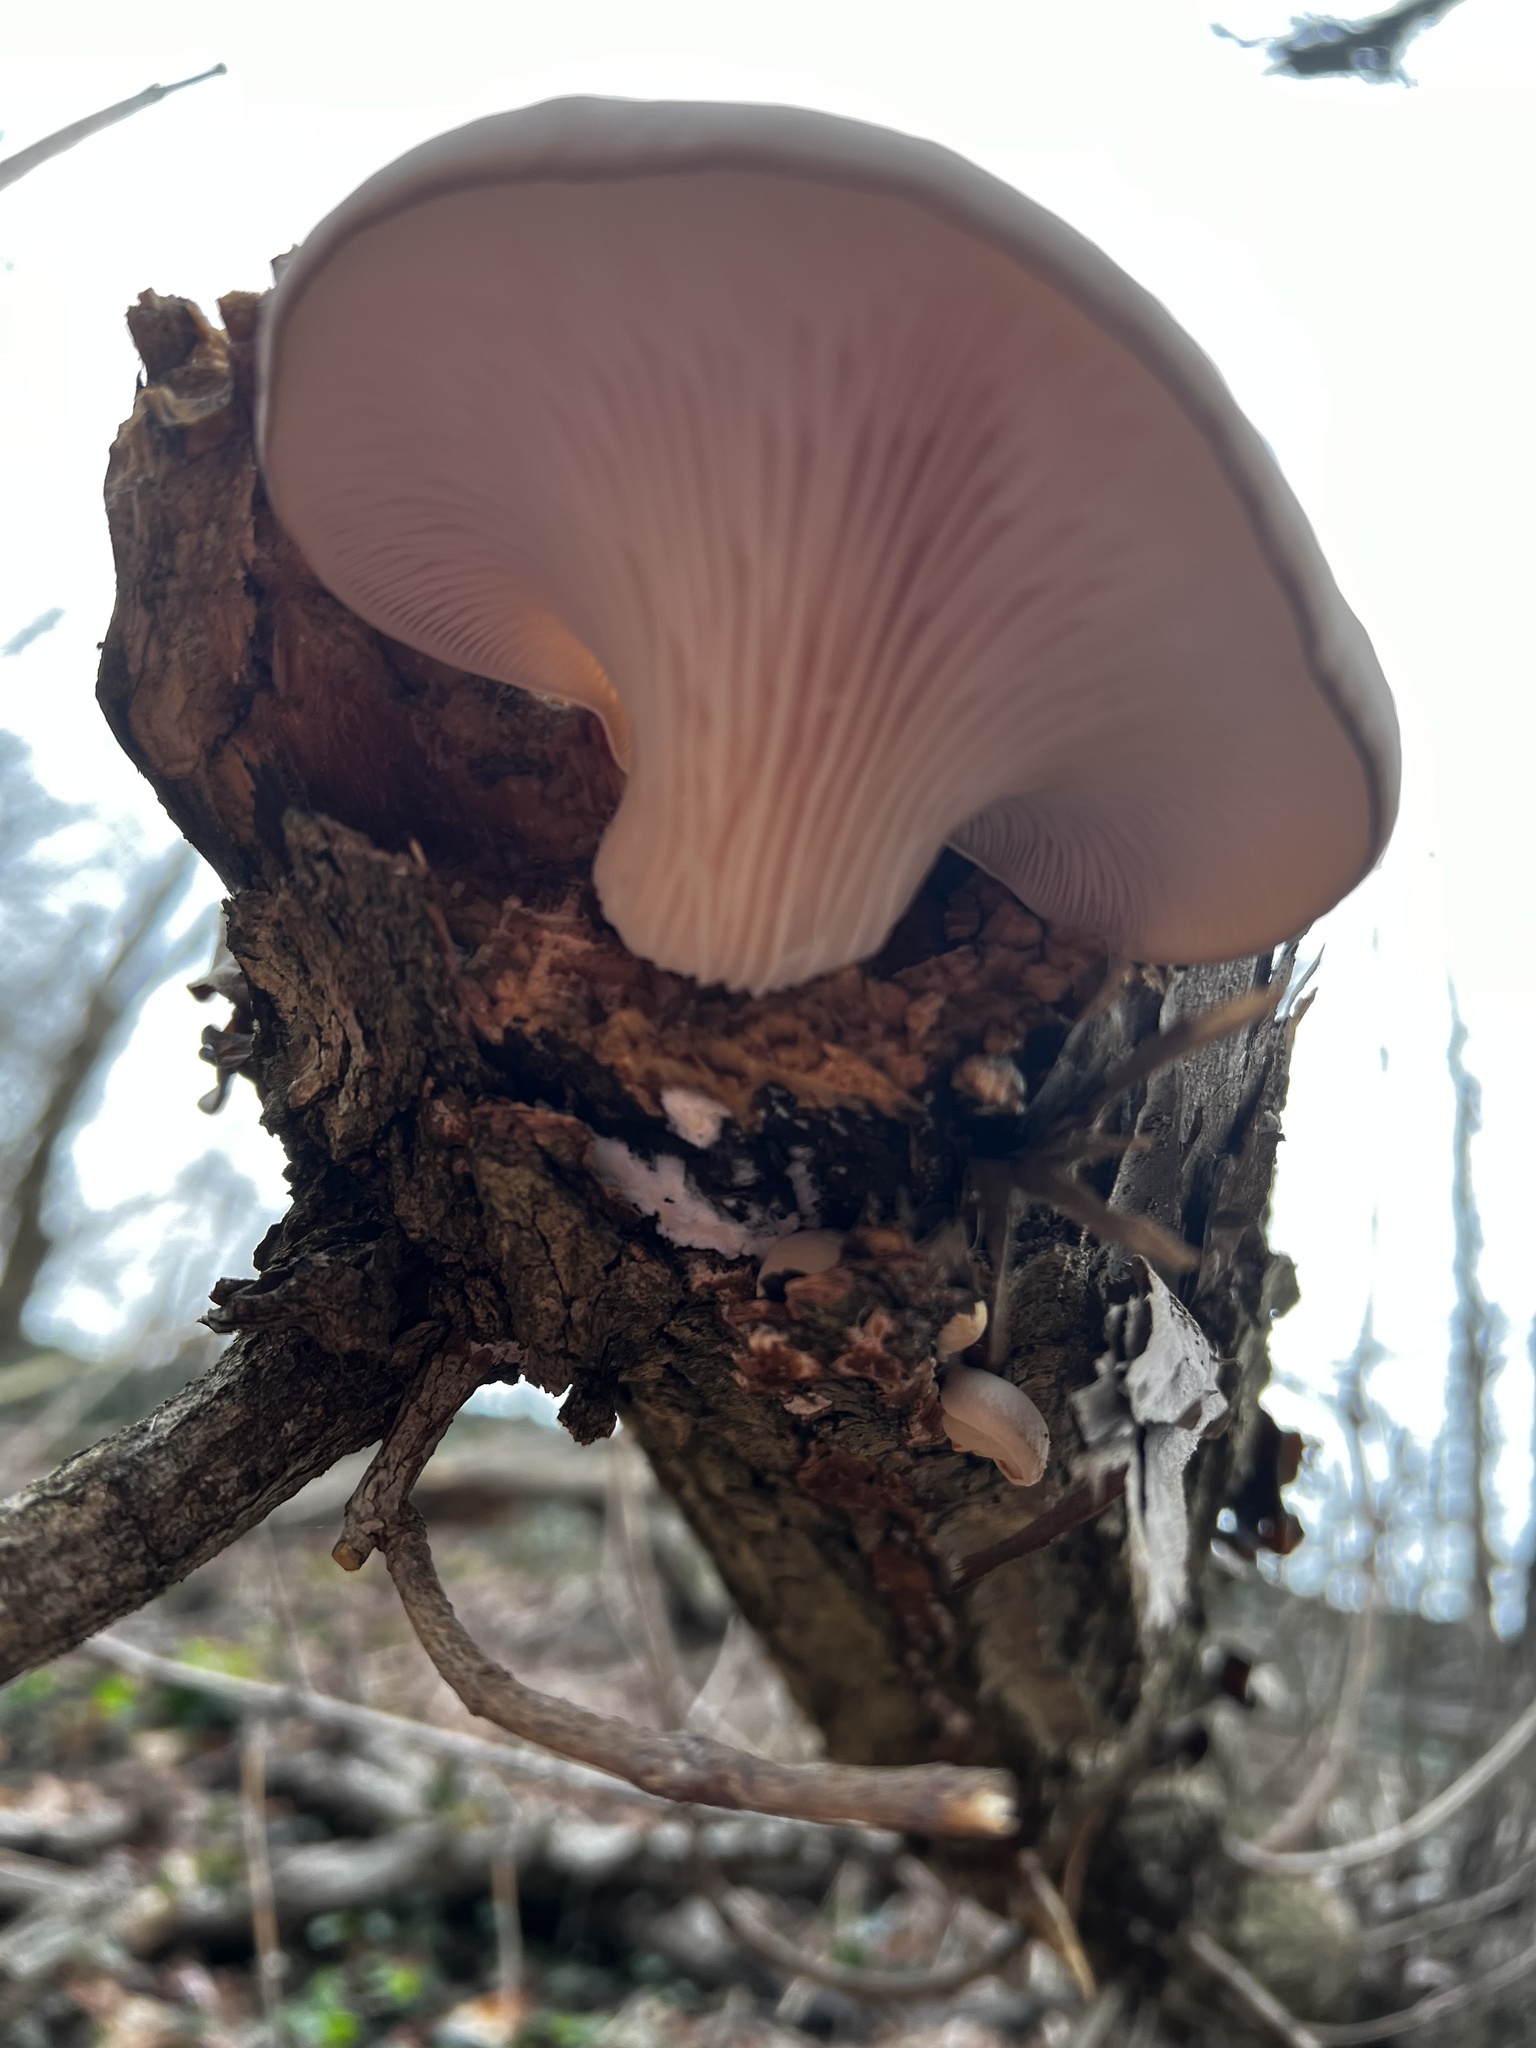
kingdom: Fungi
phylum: Basidiomycota
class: Agaricomycetes
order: Agaricales
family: Pleurotaceae
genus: Pleurotus
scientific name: Pleurotus ostreatus
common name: Oyster mushroom
